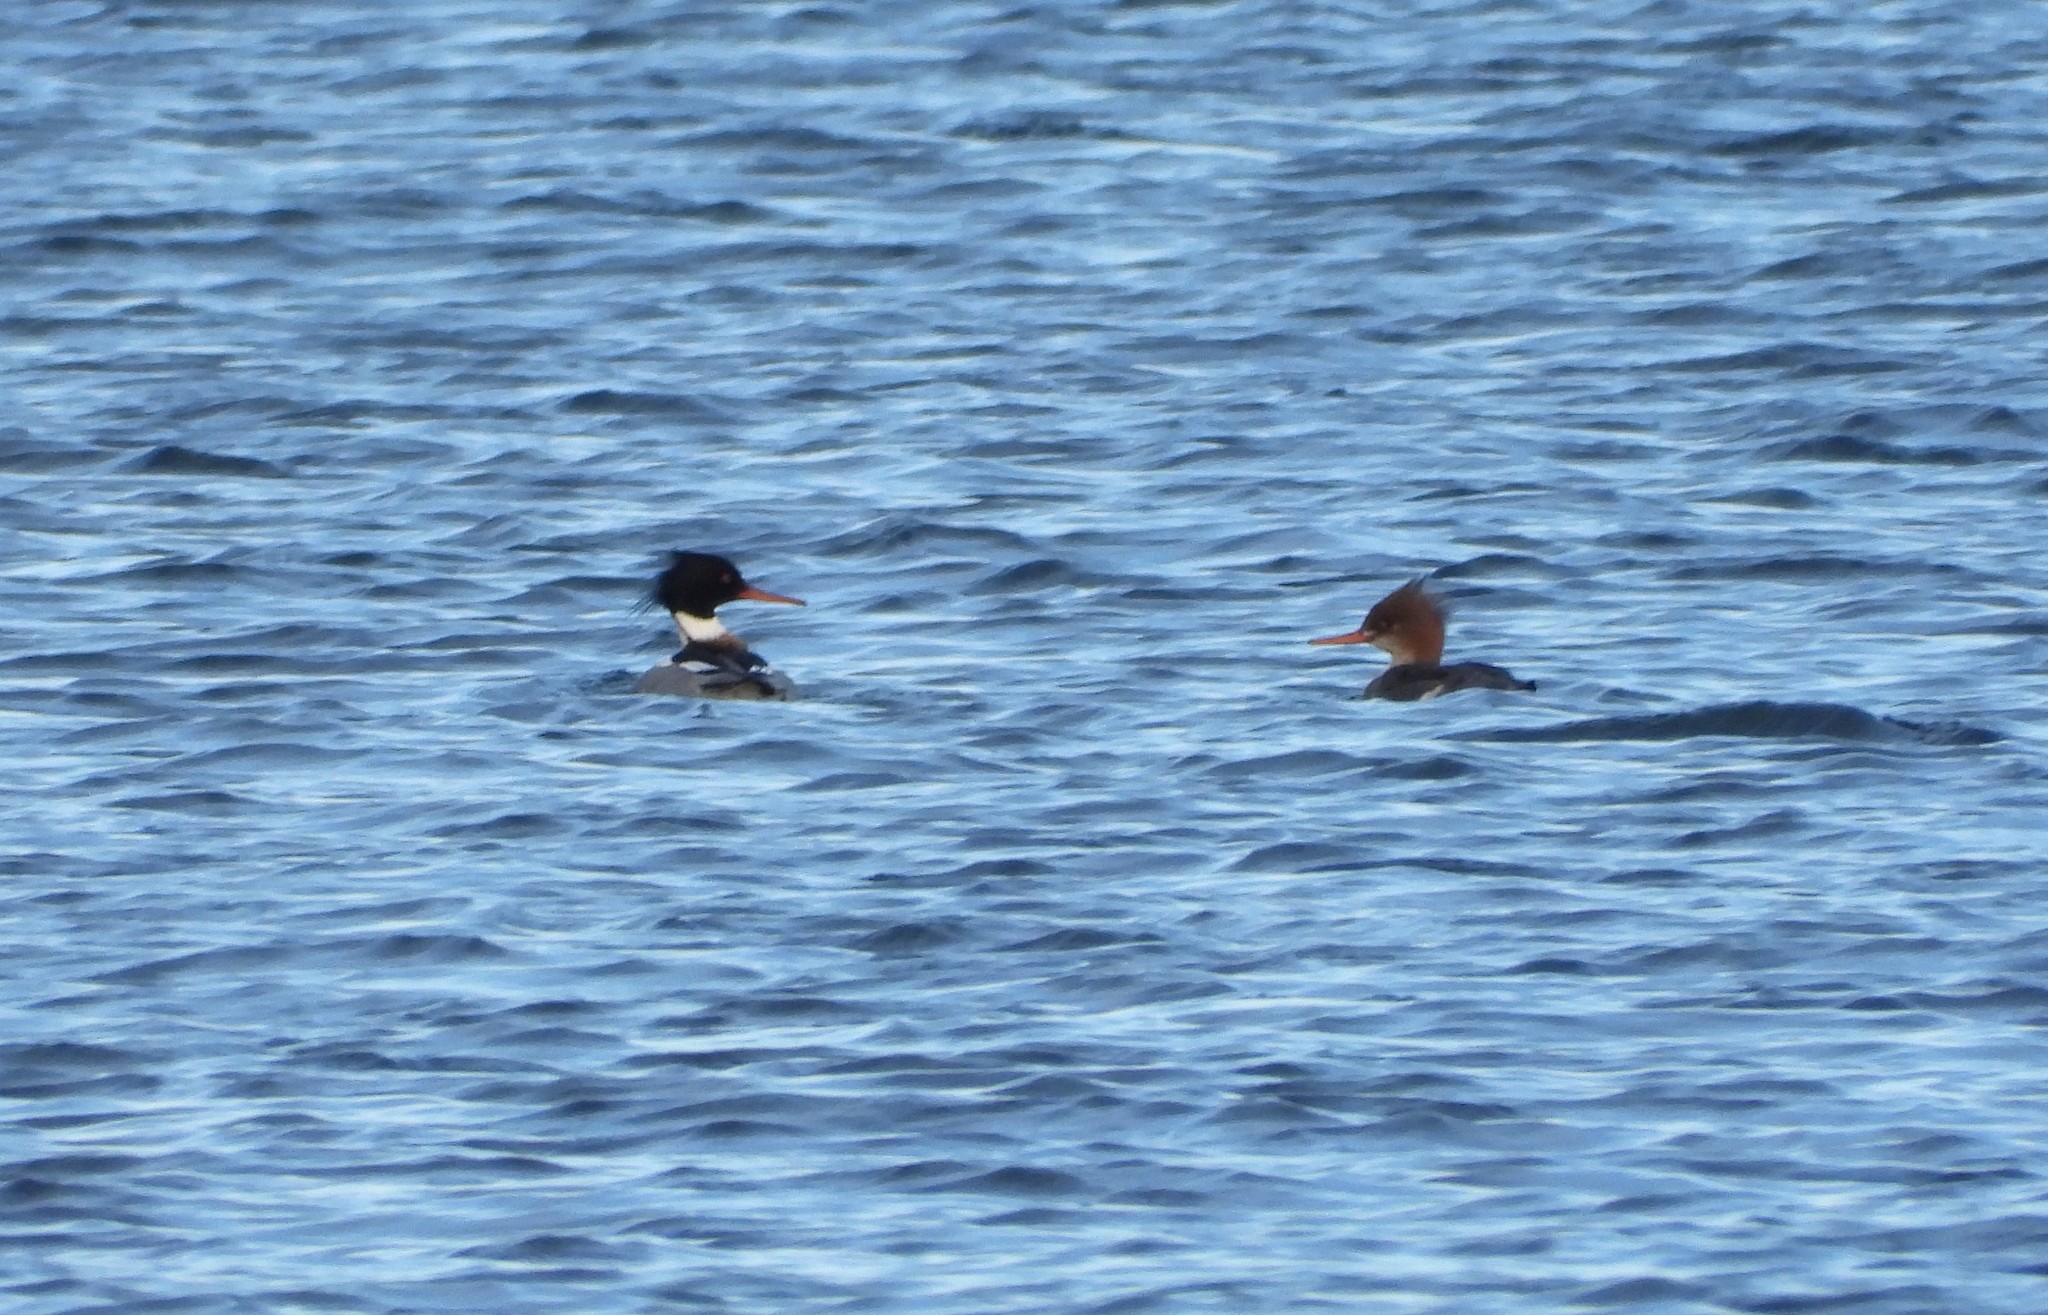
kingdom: Animalia
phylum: Chordata
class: Aves
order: Anseriformes
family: Anatidae
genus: Mergus
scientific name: Mergus serrator
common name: Red-breasted merganser
